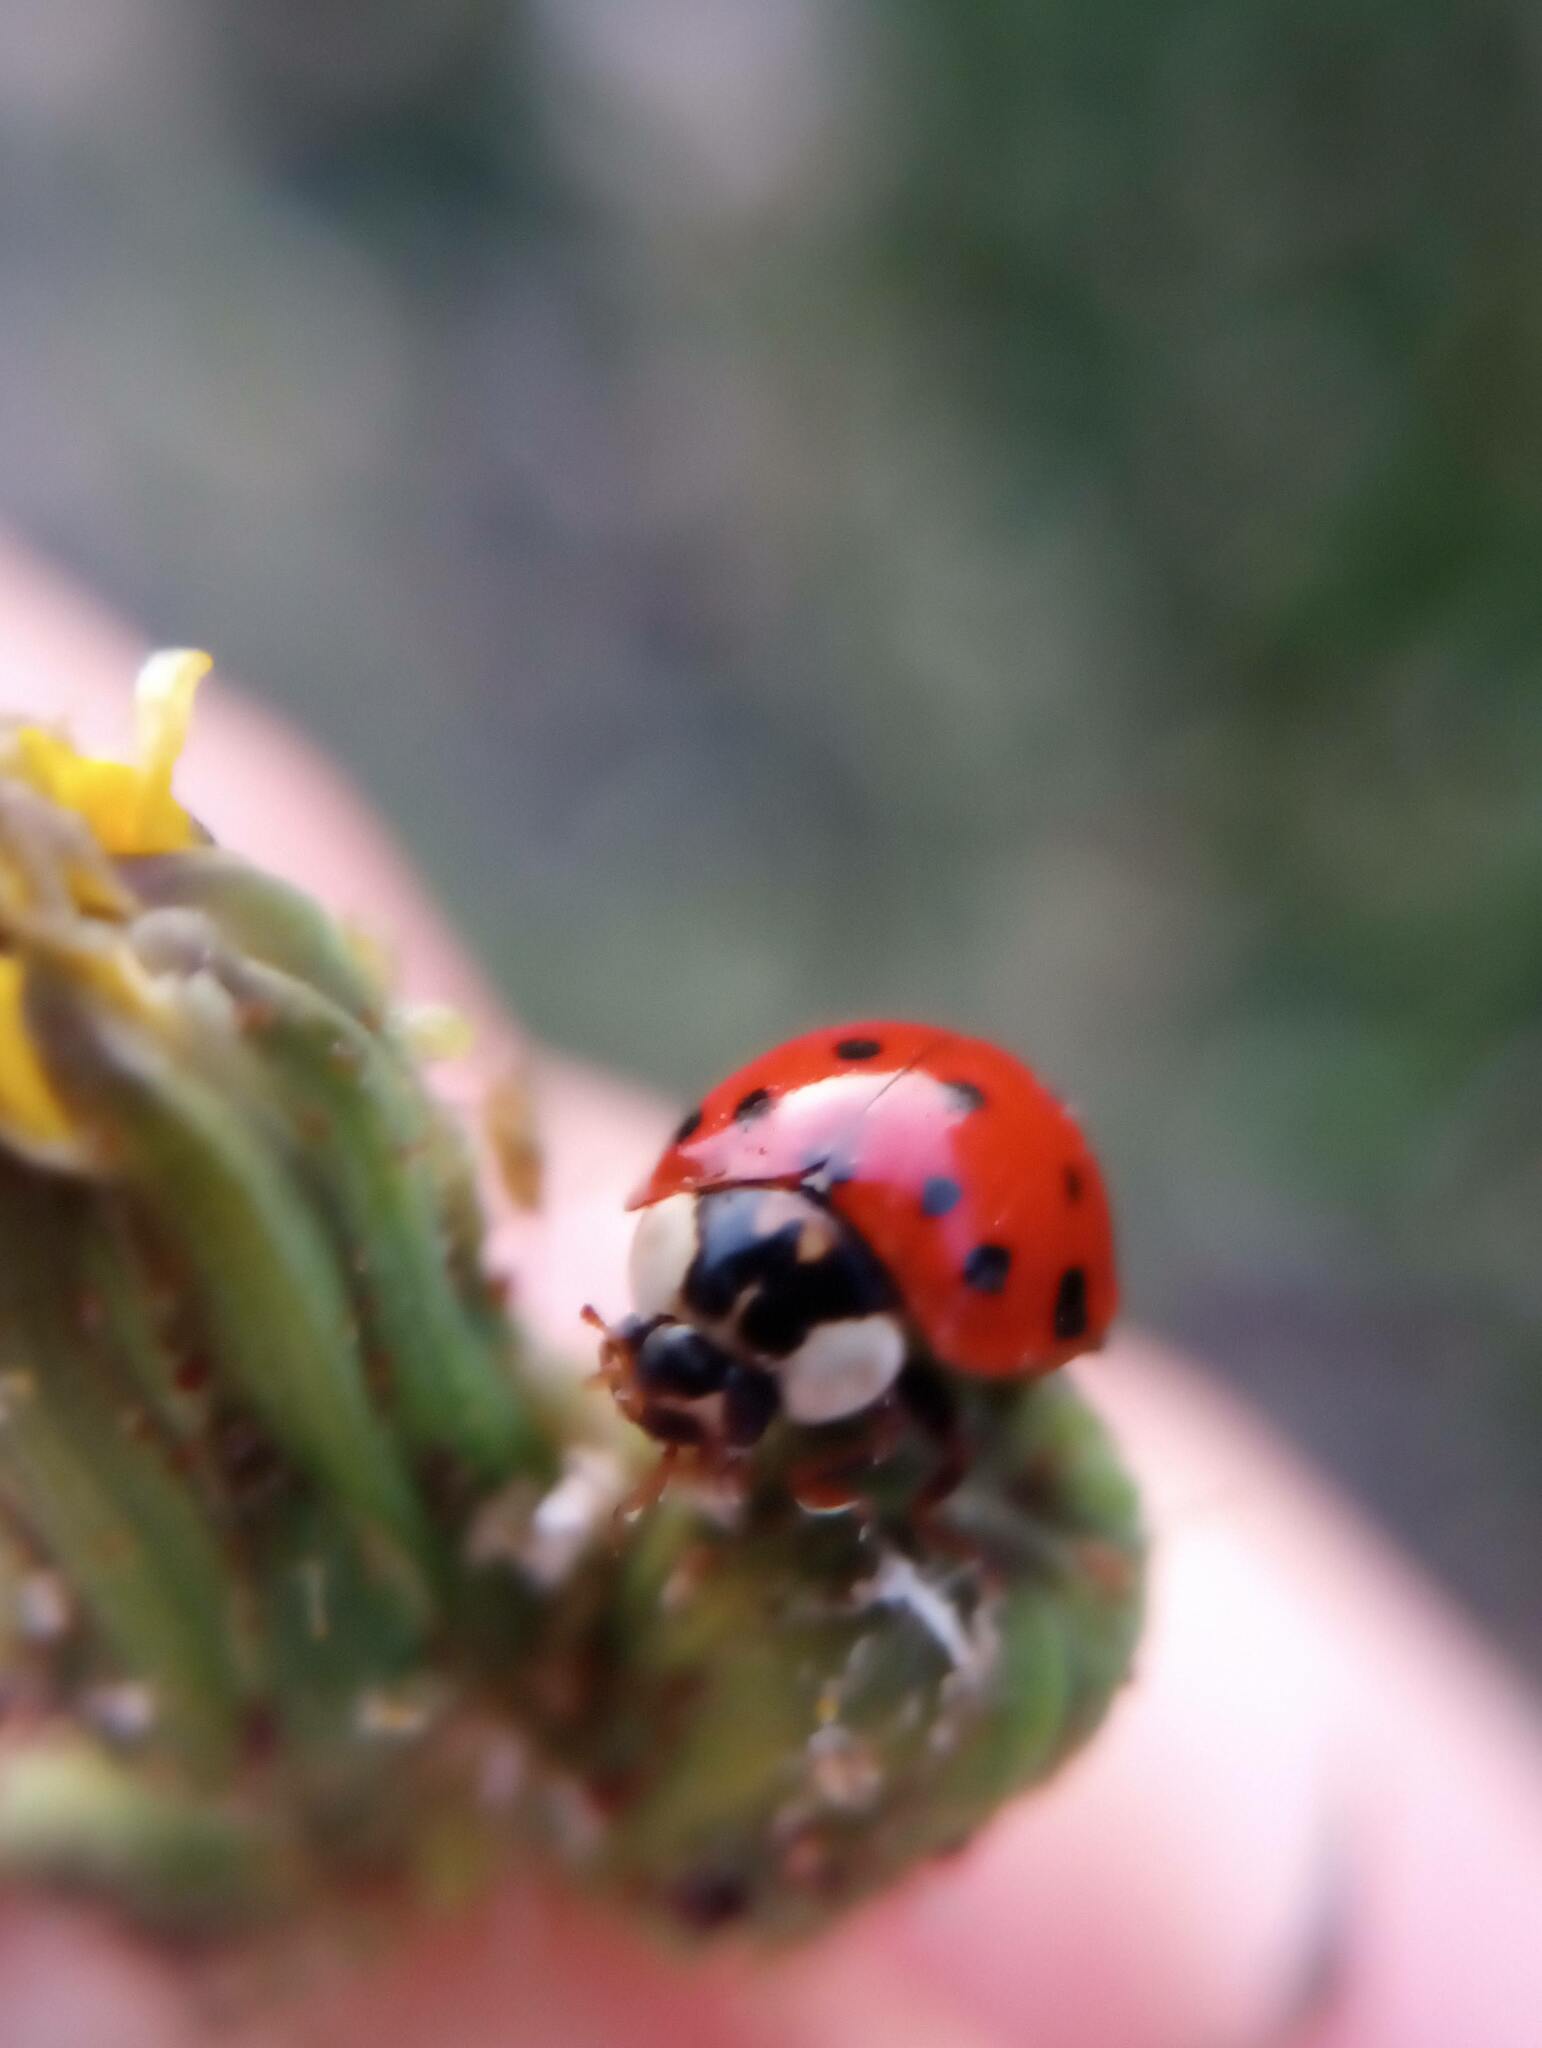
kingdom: Animalia
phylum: Arthropoda
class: Insecta
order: Coleoptera
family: Coccinellidae
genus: Harmonia
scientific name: Harmonia axyridis
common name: Harlequin ladybird
